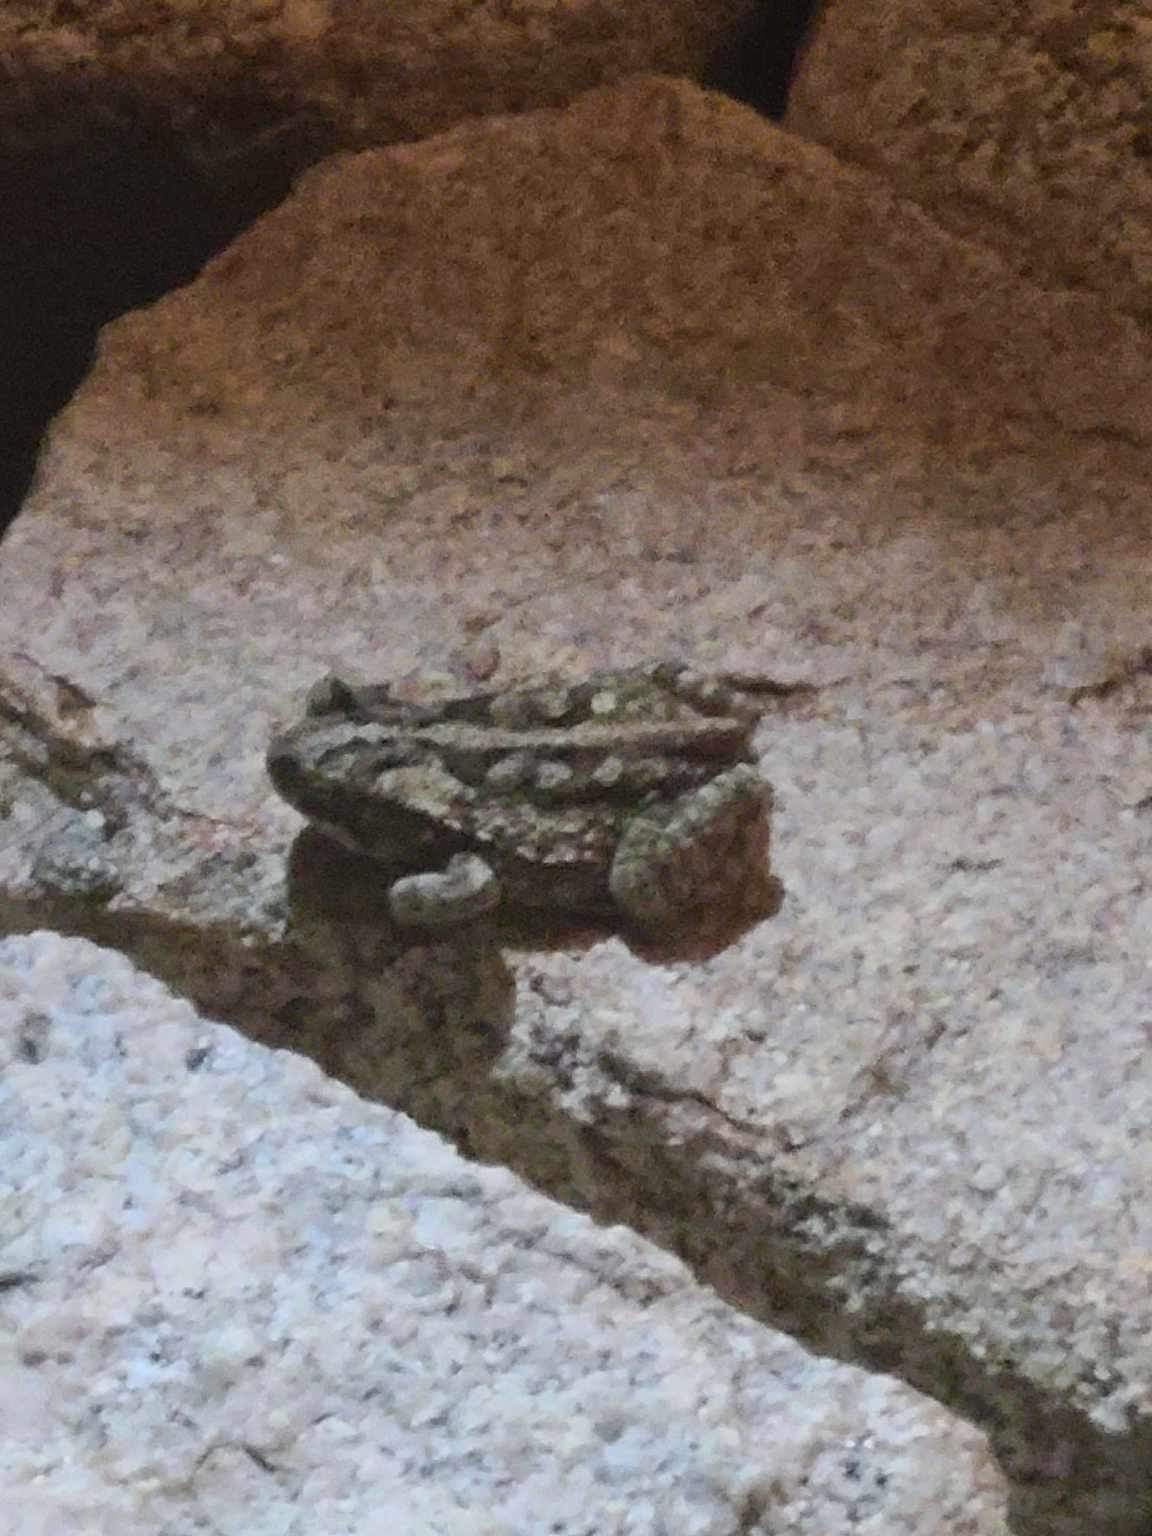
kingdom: Animalia
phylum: Chordata
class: Amphibia
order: Anura
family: Bufonidae
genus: Rhinella
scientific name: Rhinella horribilis
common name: Mesoamerican cane toad
